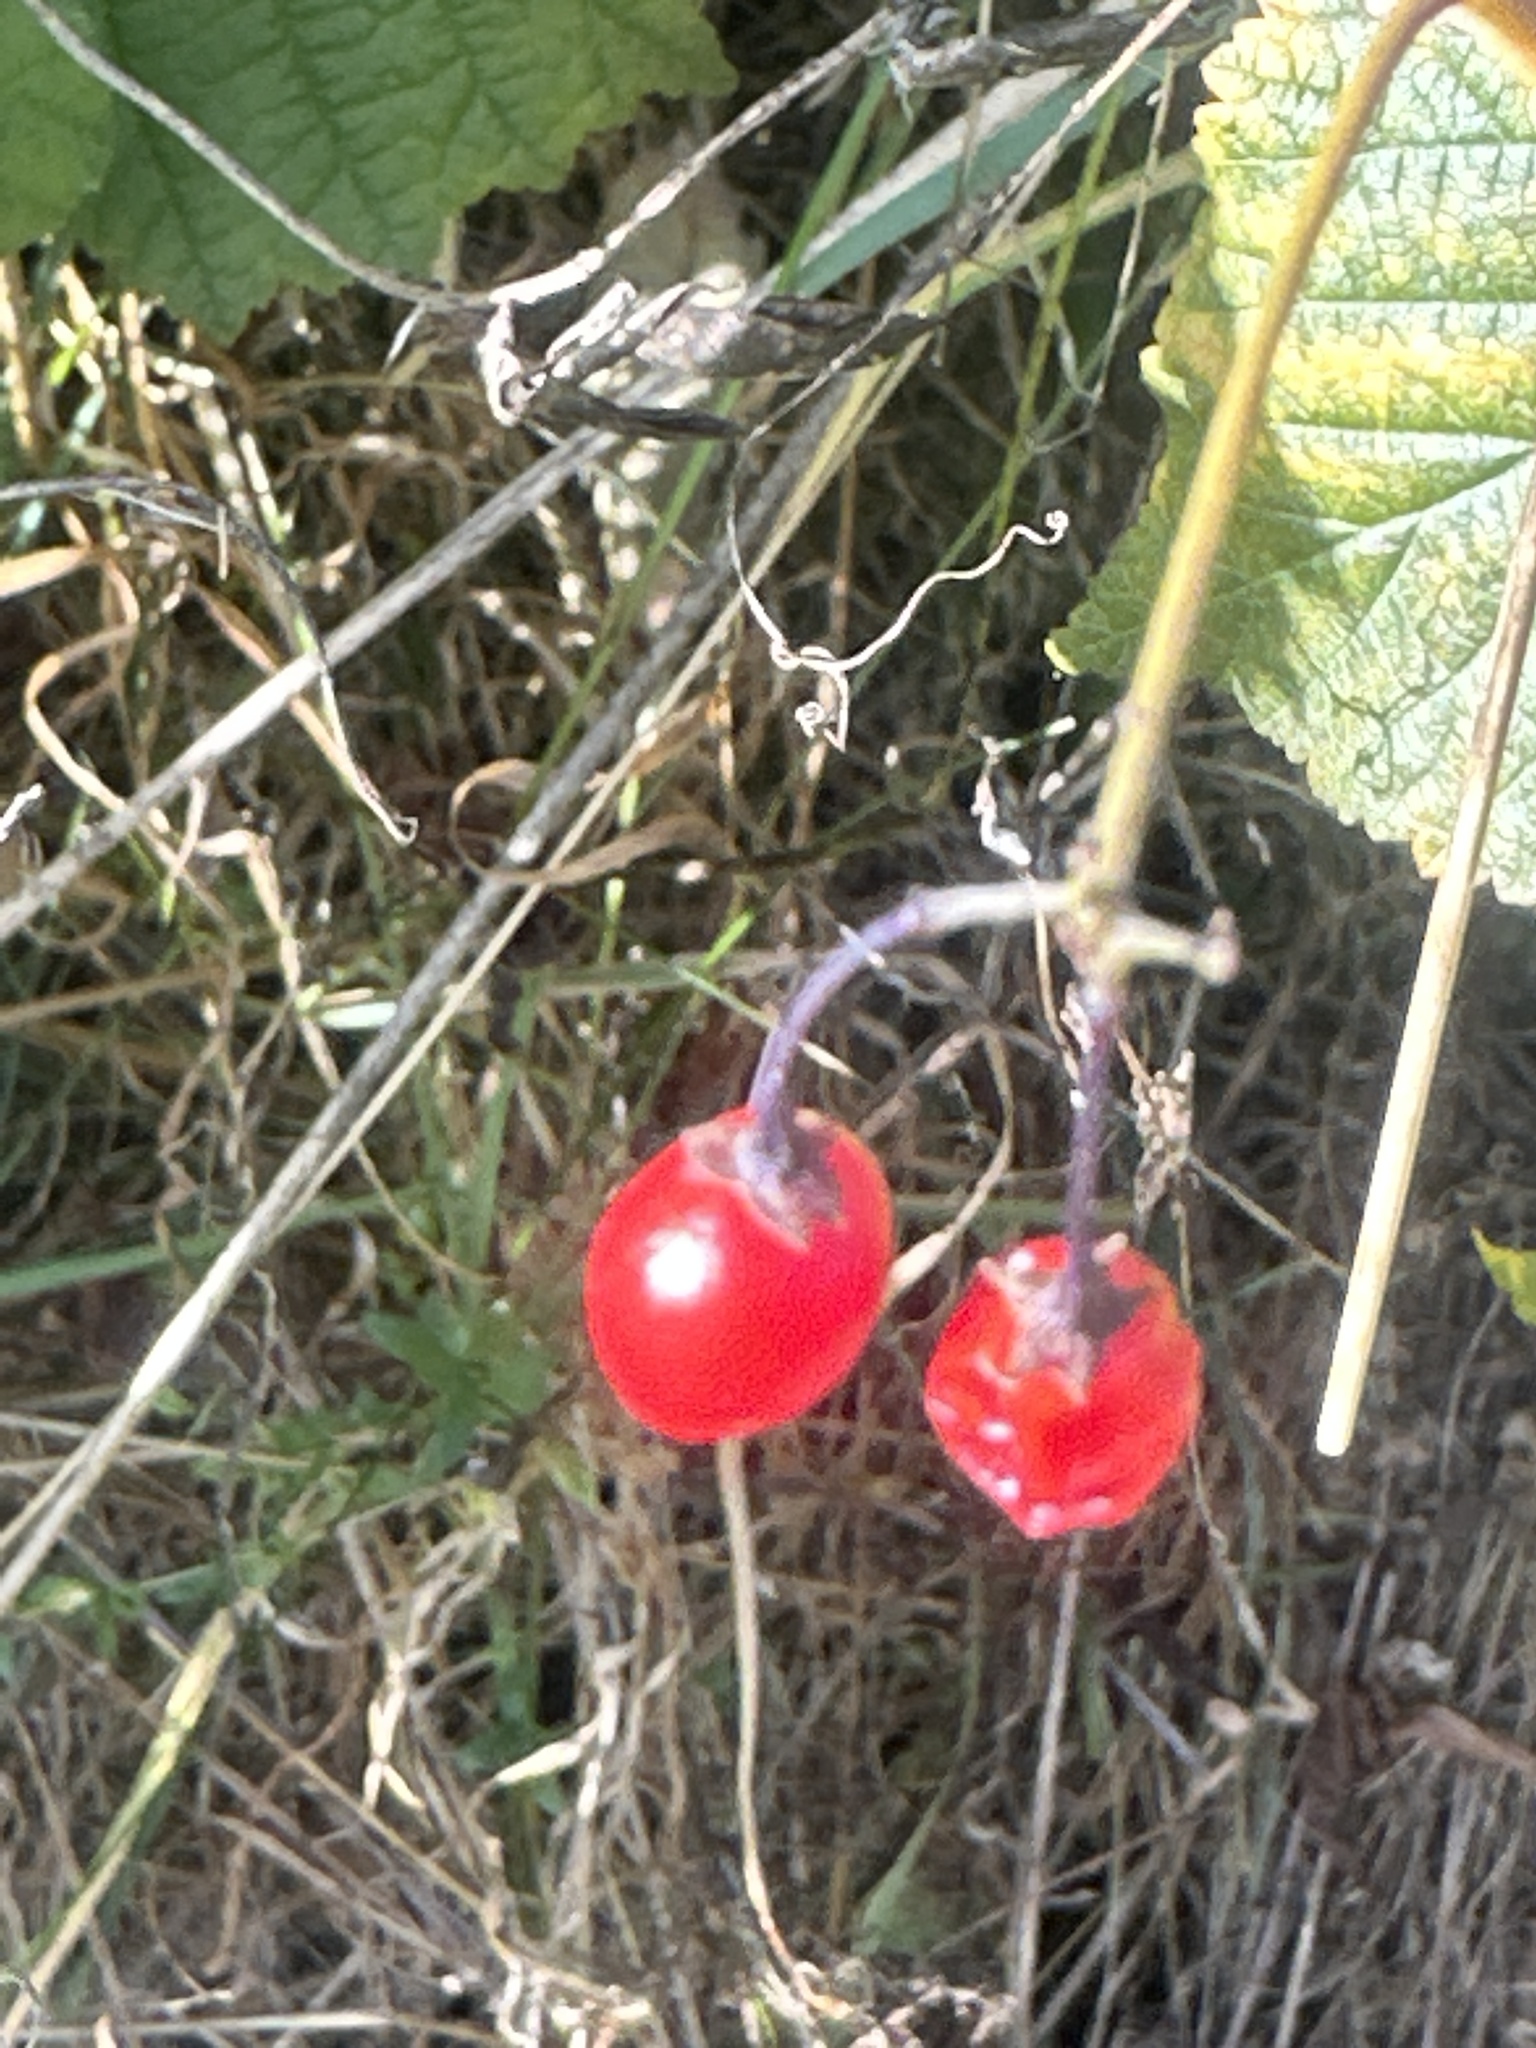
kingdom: Plantae
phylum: Tracheophyta
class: Magnoliopsida
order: Solanales
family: Solanaceae
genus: Solanum
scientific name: Solanum dulcamara
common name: Climbing nightshade
